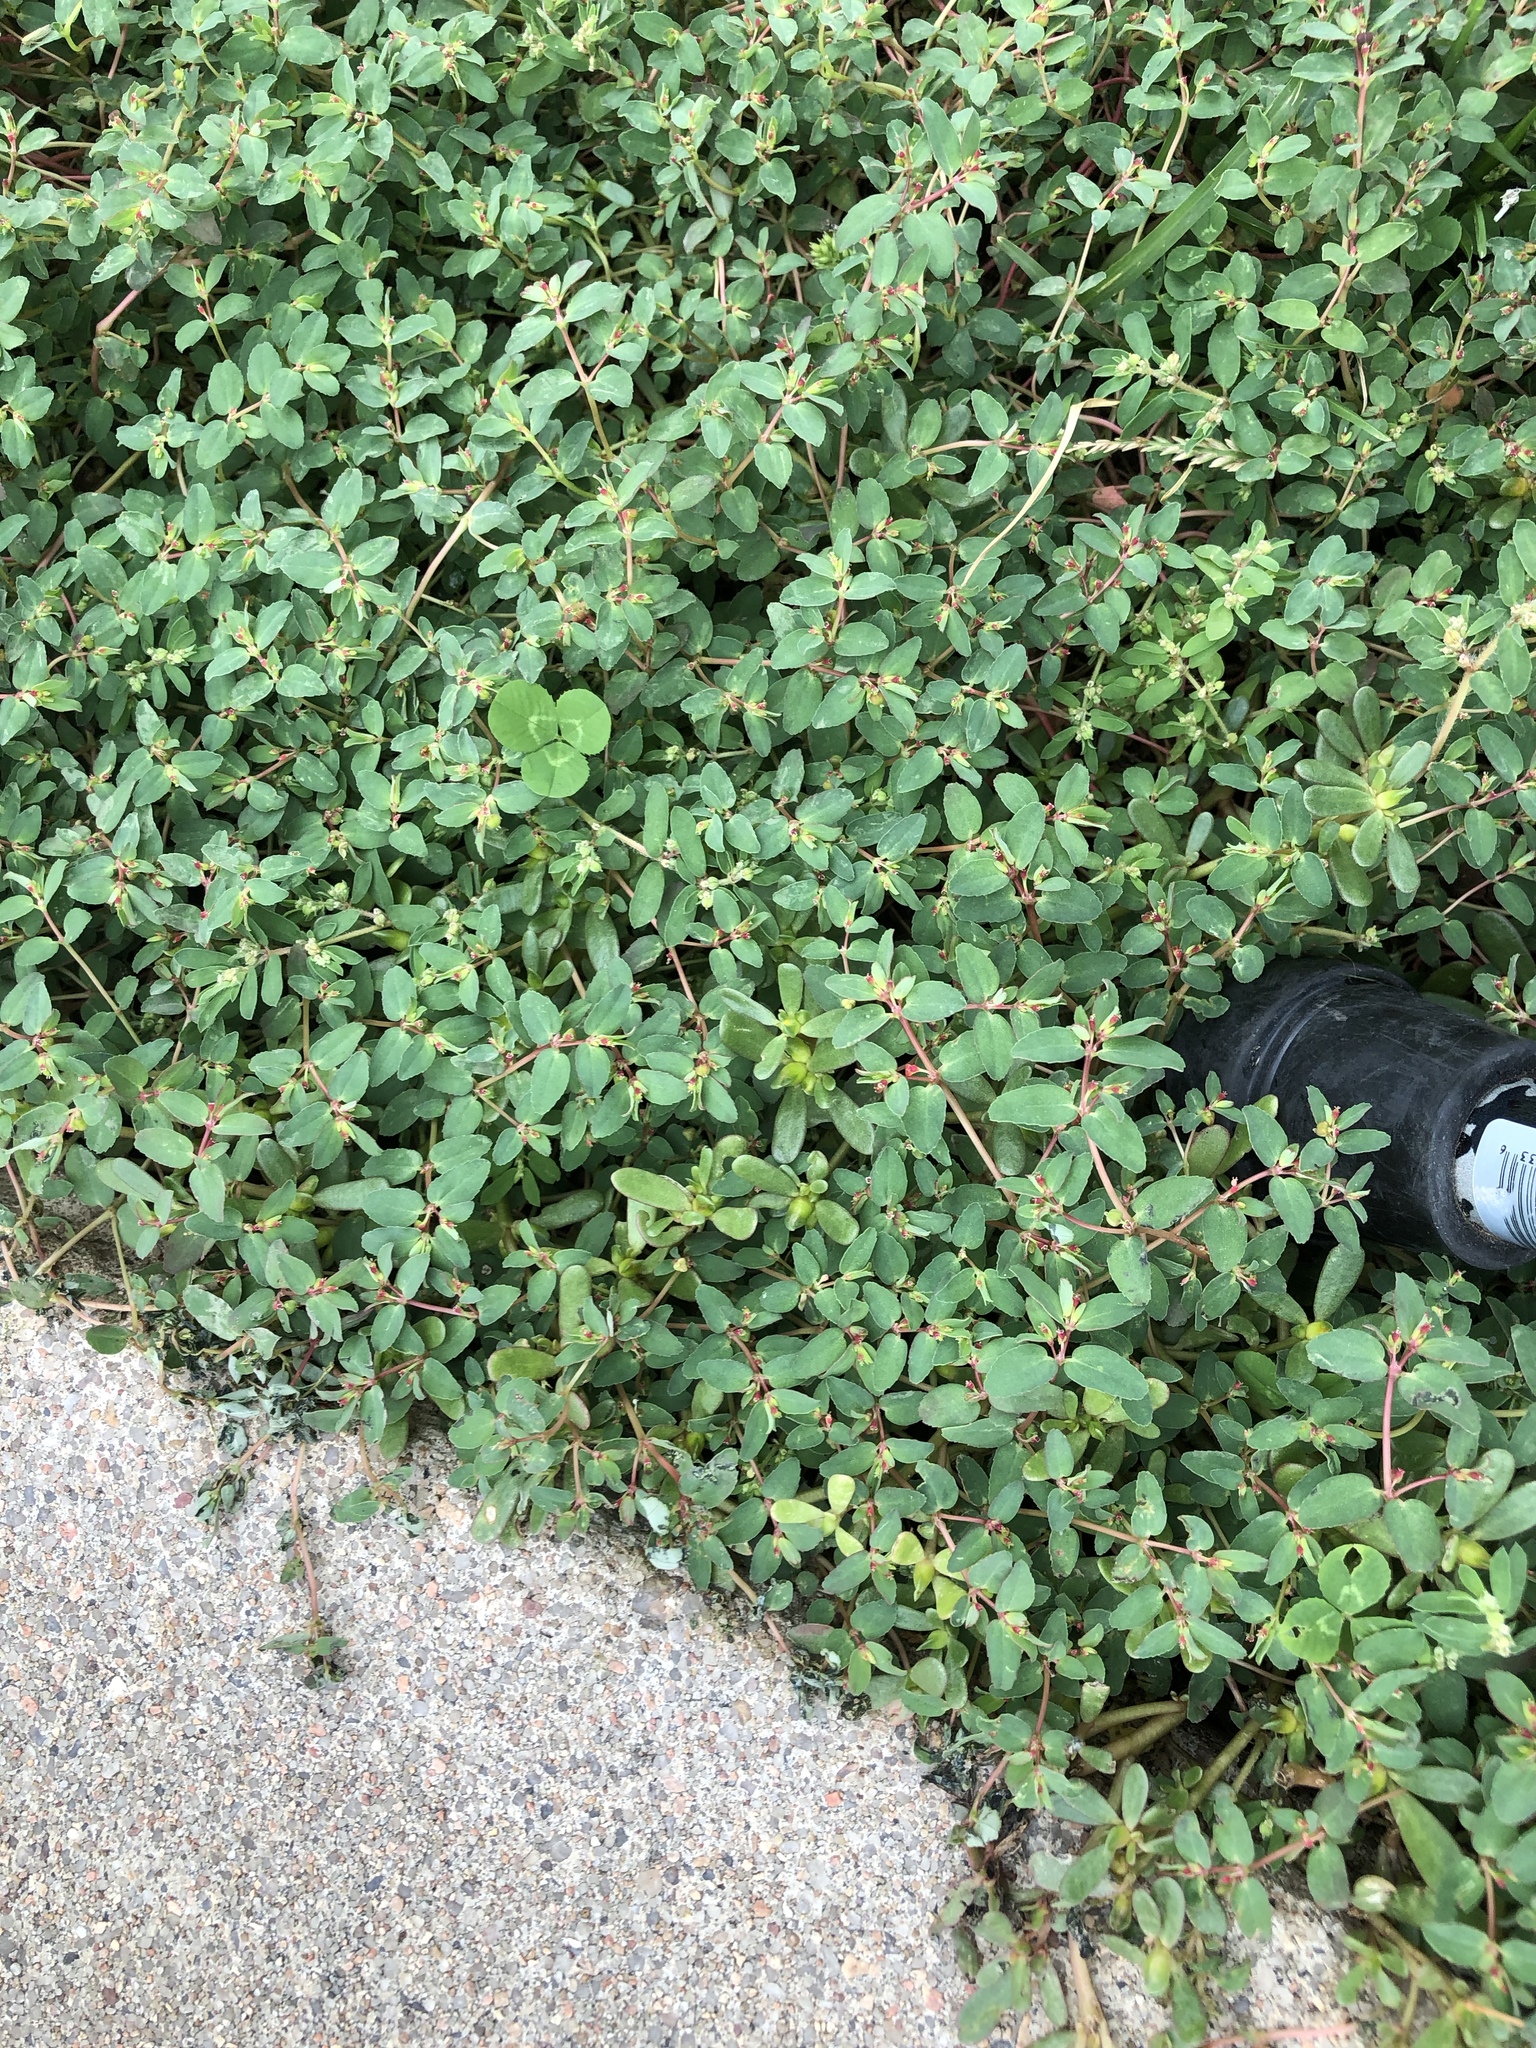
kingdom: Plantae
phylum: Tracheophyta
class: Magnoliopsida
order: Malpighiales
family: Euphorbiaceae
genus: Euphorbia
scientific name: Euphorbia vermiculata
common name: Hairy spurge
